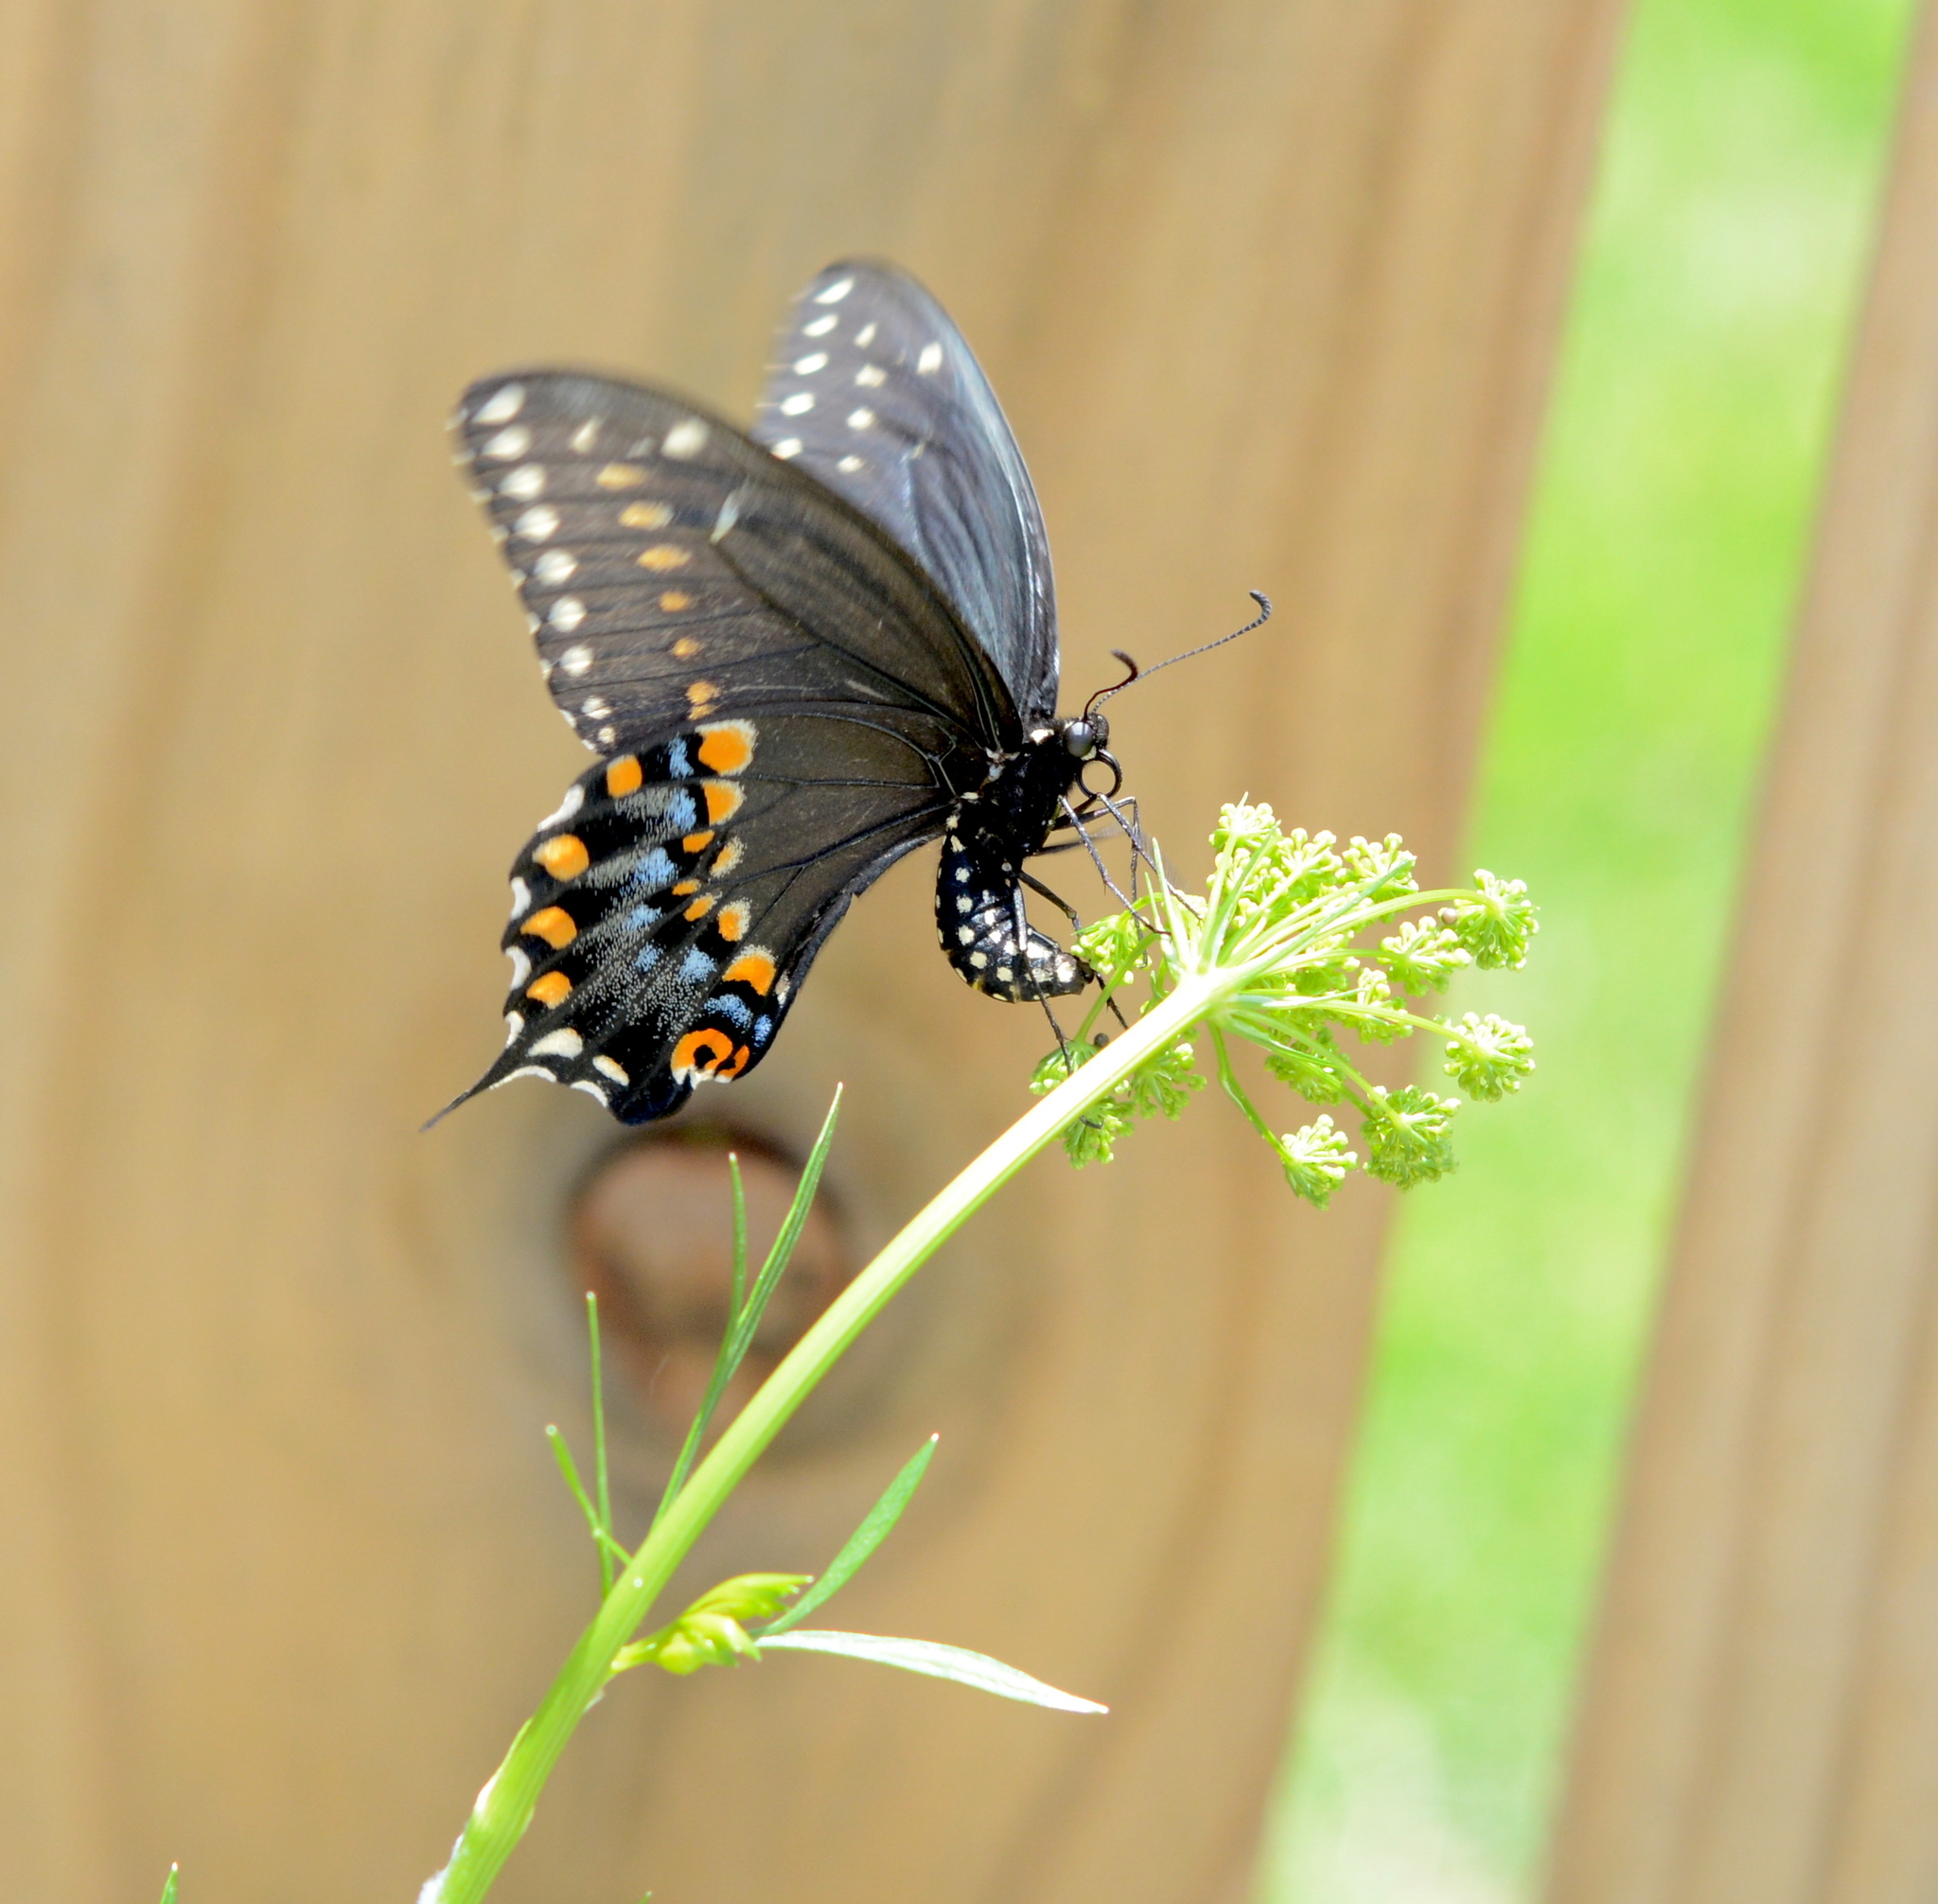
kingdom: Animalia
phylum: Arthropoda
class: Insecta
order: Lepidoptera
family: Papilionidae
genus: Papilio
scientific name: Papilio polyxenes
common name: Black swallowtail
